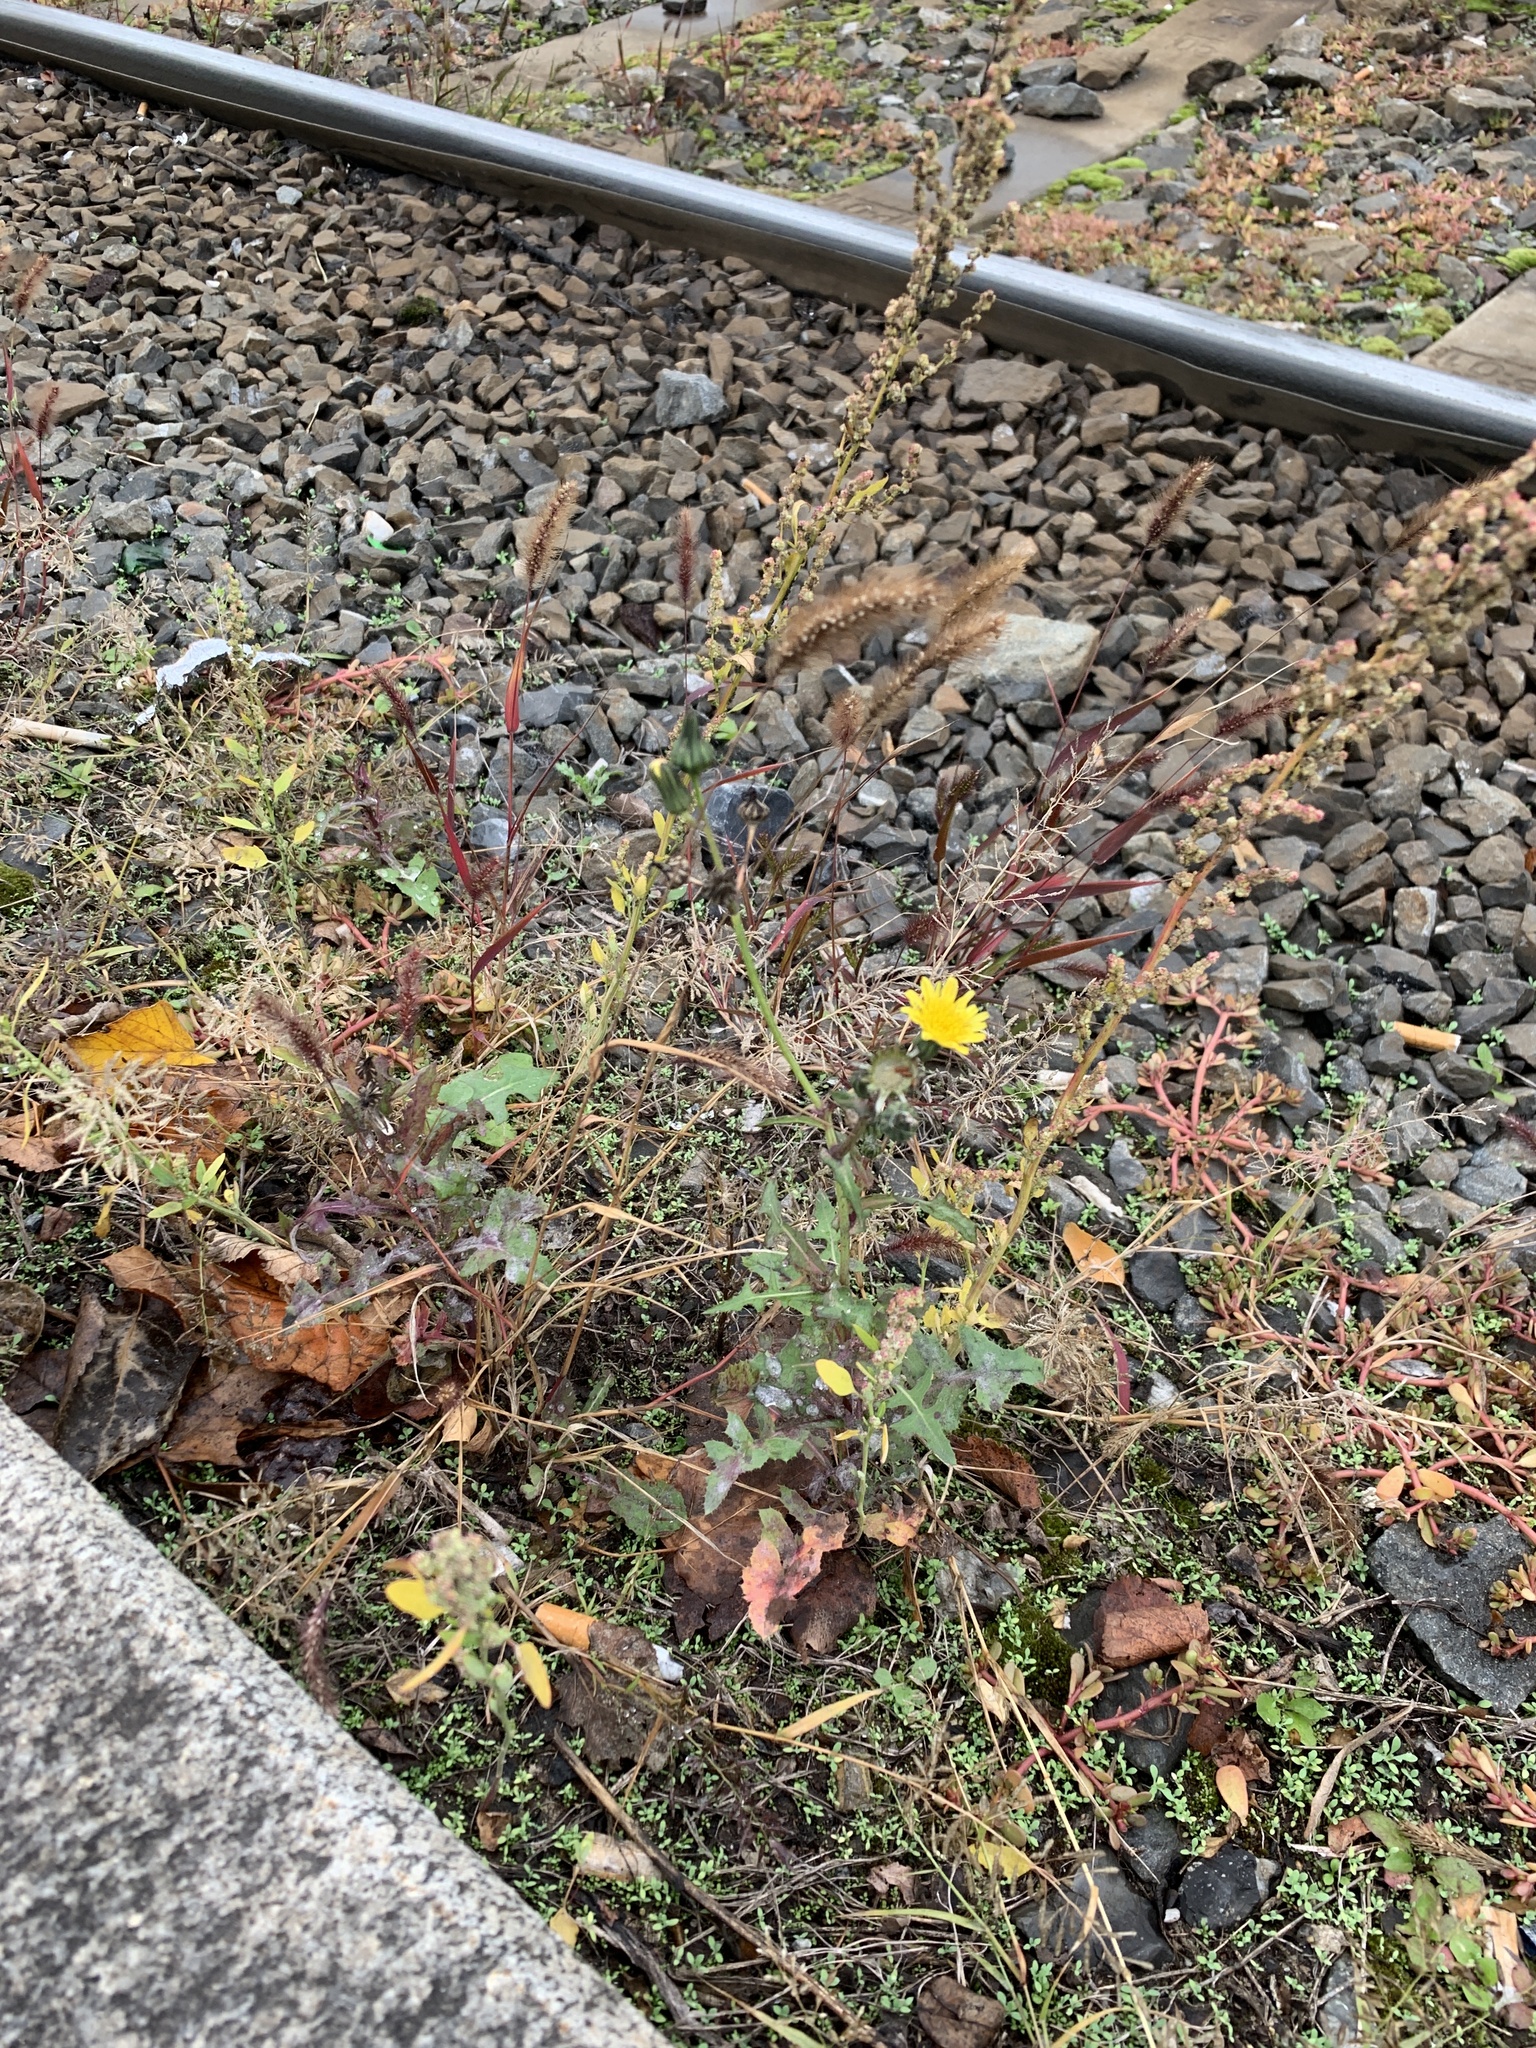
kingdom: Plantae
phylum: Tracheophyta
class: Magnoliopsida
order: Asterales
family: Asteraceae
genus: Sonchus
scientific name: Sonchus oleraceus
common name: Common sowthistle
